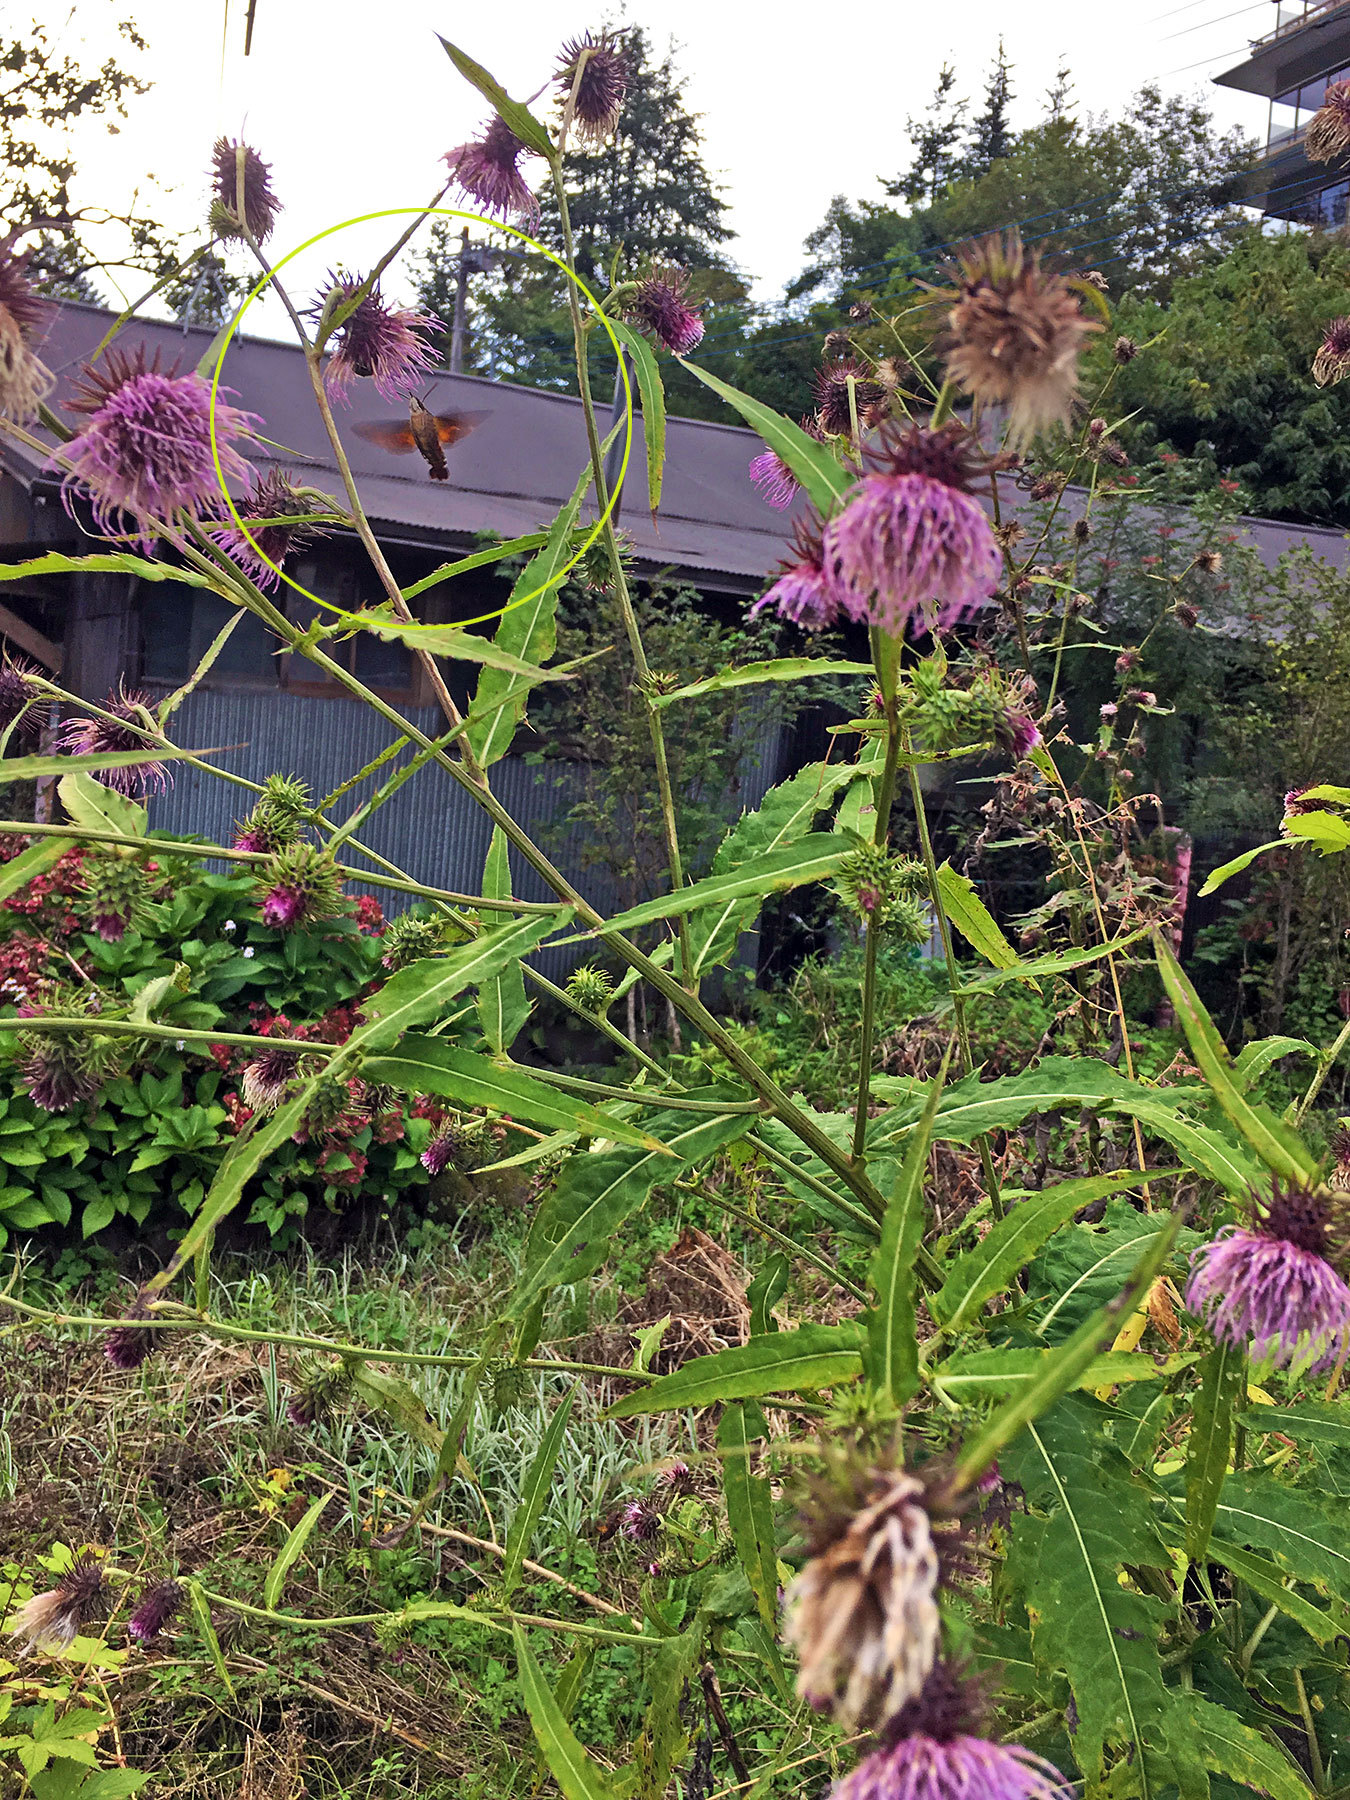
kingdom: Animalia
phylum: Arthropoda
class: Insecta
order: Lepidoptera
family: Sphingidae
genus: Neogurelca
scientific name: Neogurelca himachala
